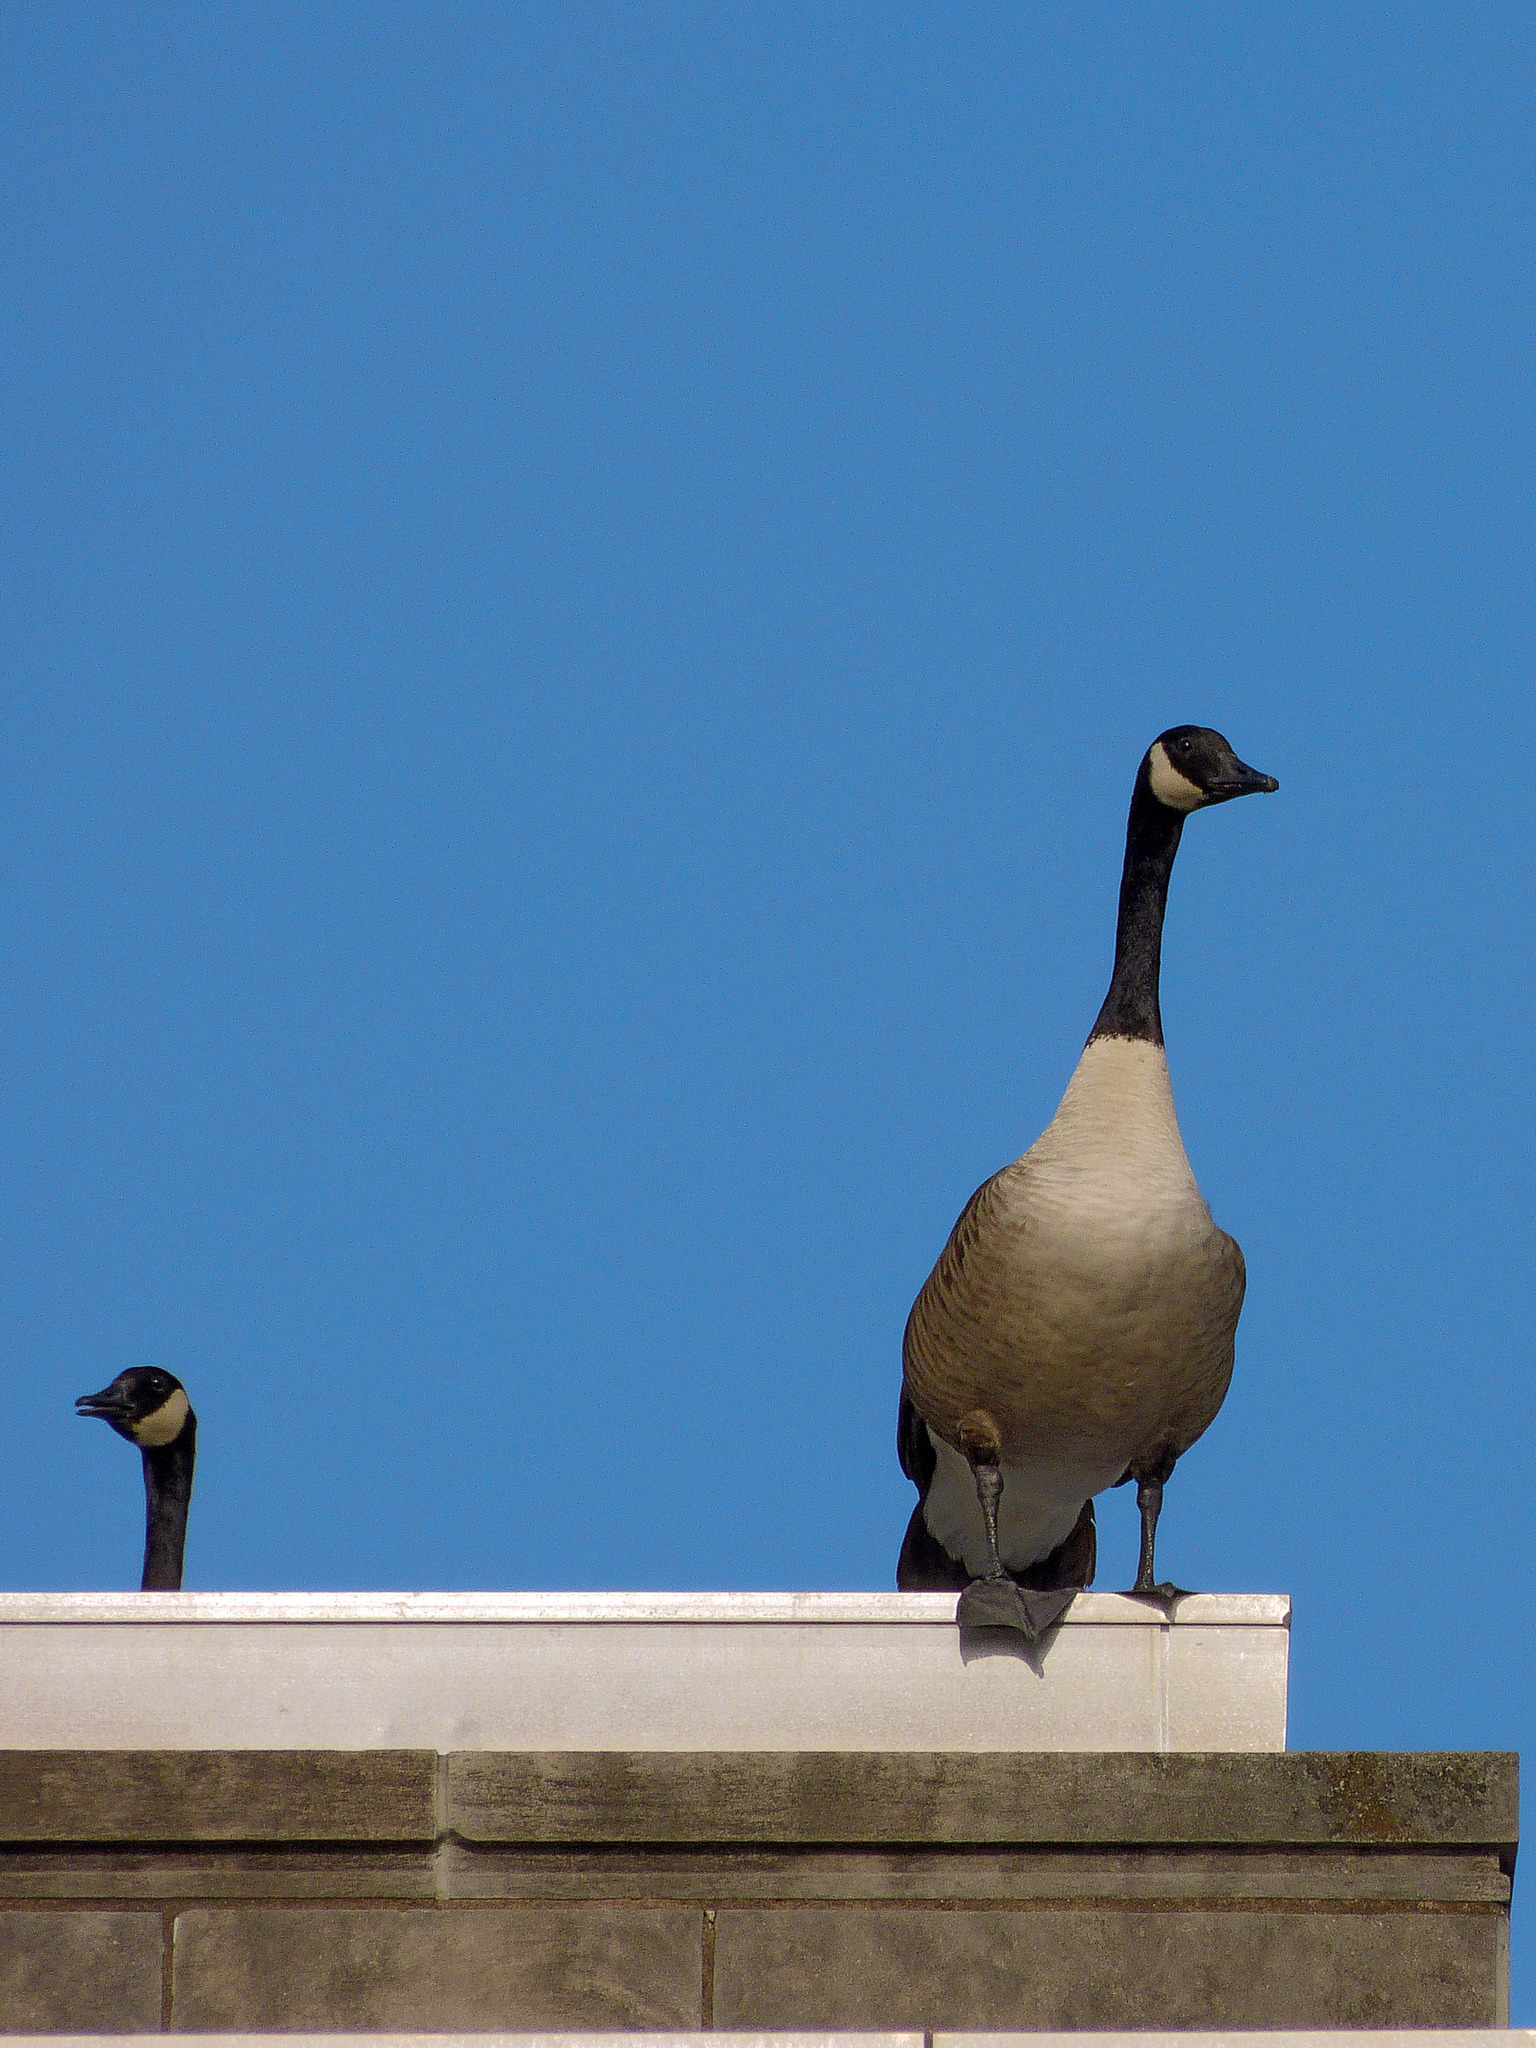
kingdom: Animalia
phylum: Chordata
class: Aves
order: Anseriformes
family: Anatidae
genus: Branta
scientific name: Branta canadensis
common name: Canada goose
